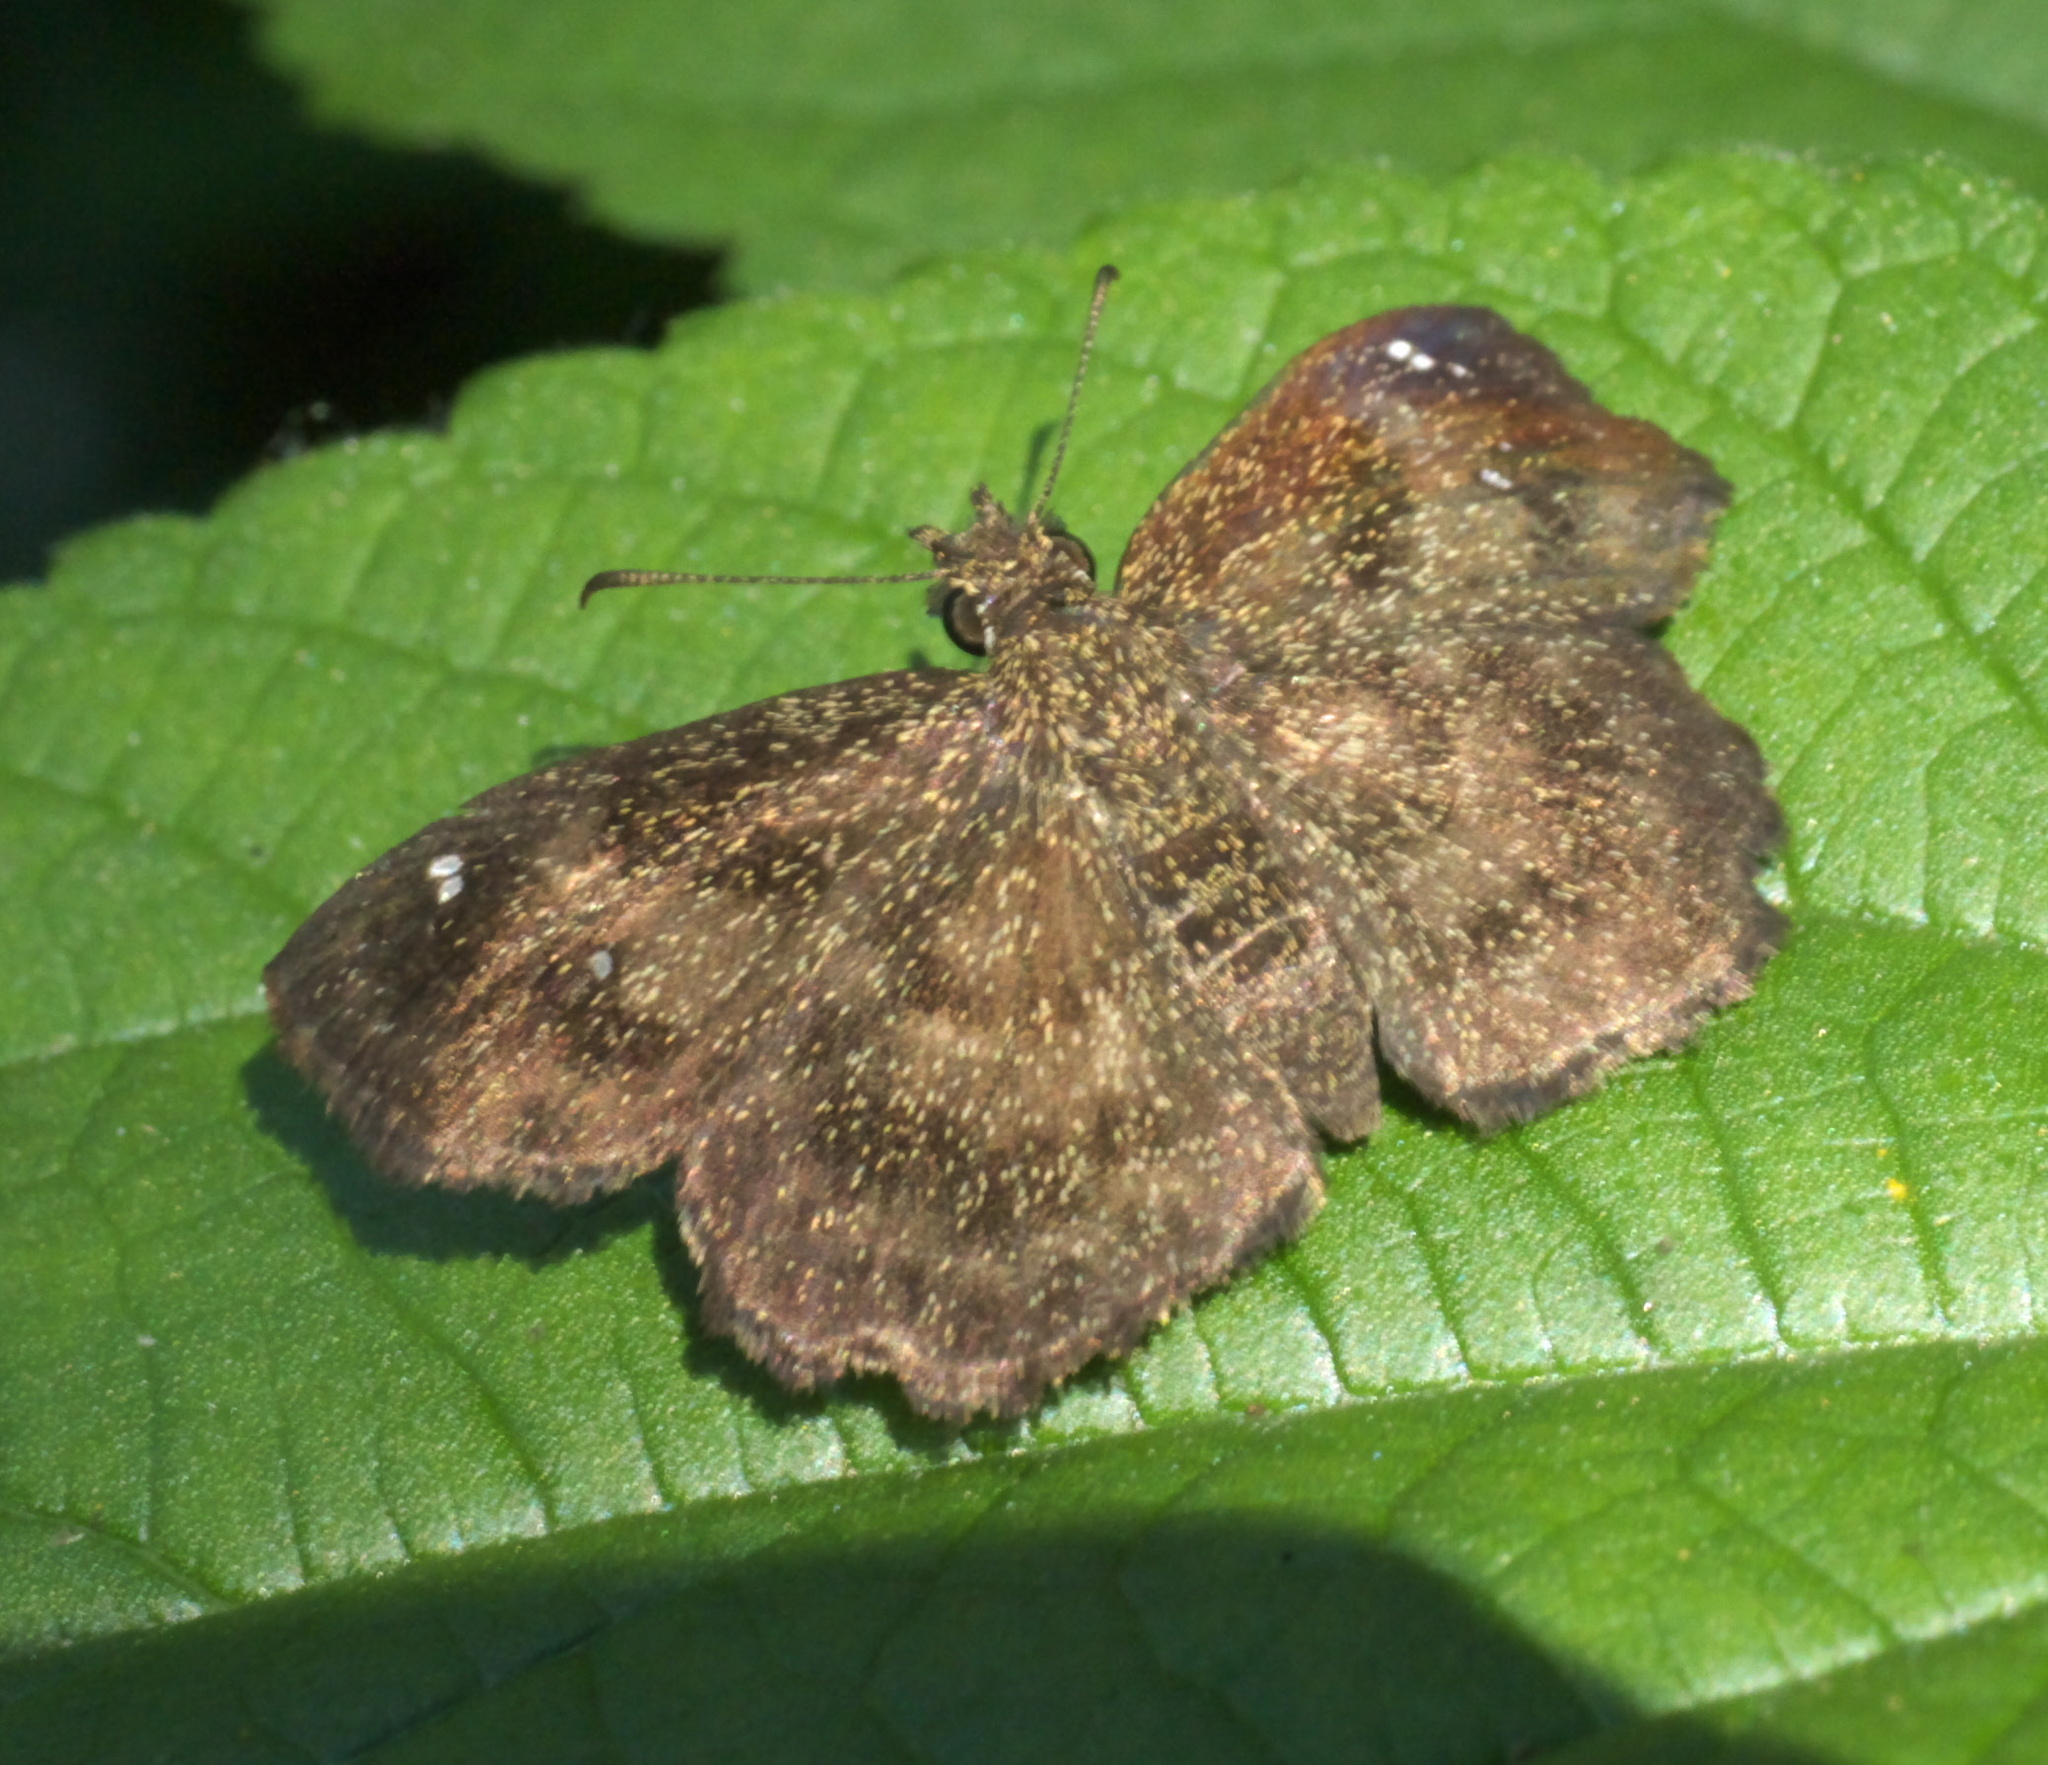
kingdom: Animalia
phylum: Arthropoda
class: Insecta
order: Lepidoptera
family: Hesperiidae
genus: Staphylus
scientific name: Staphylus mazans
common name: Mazans scallopwing
